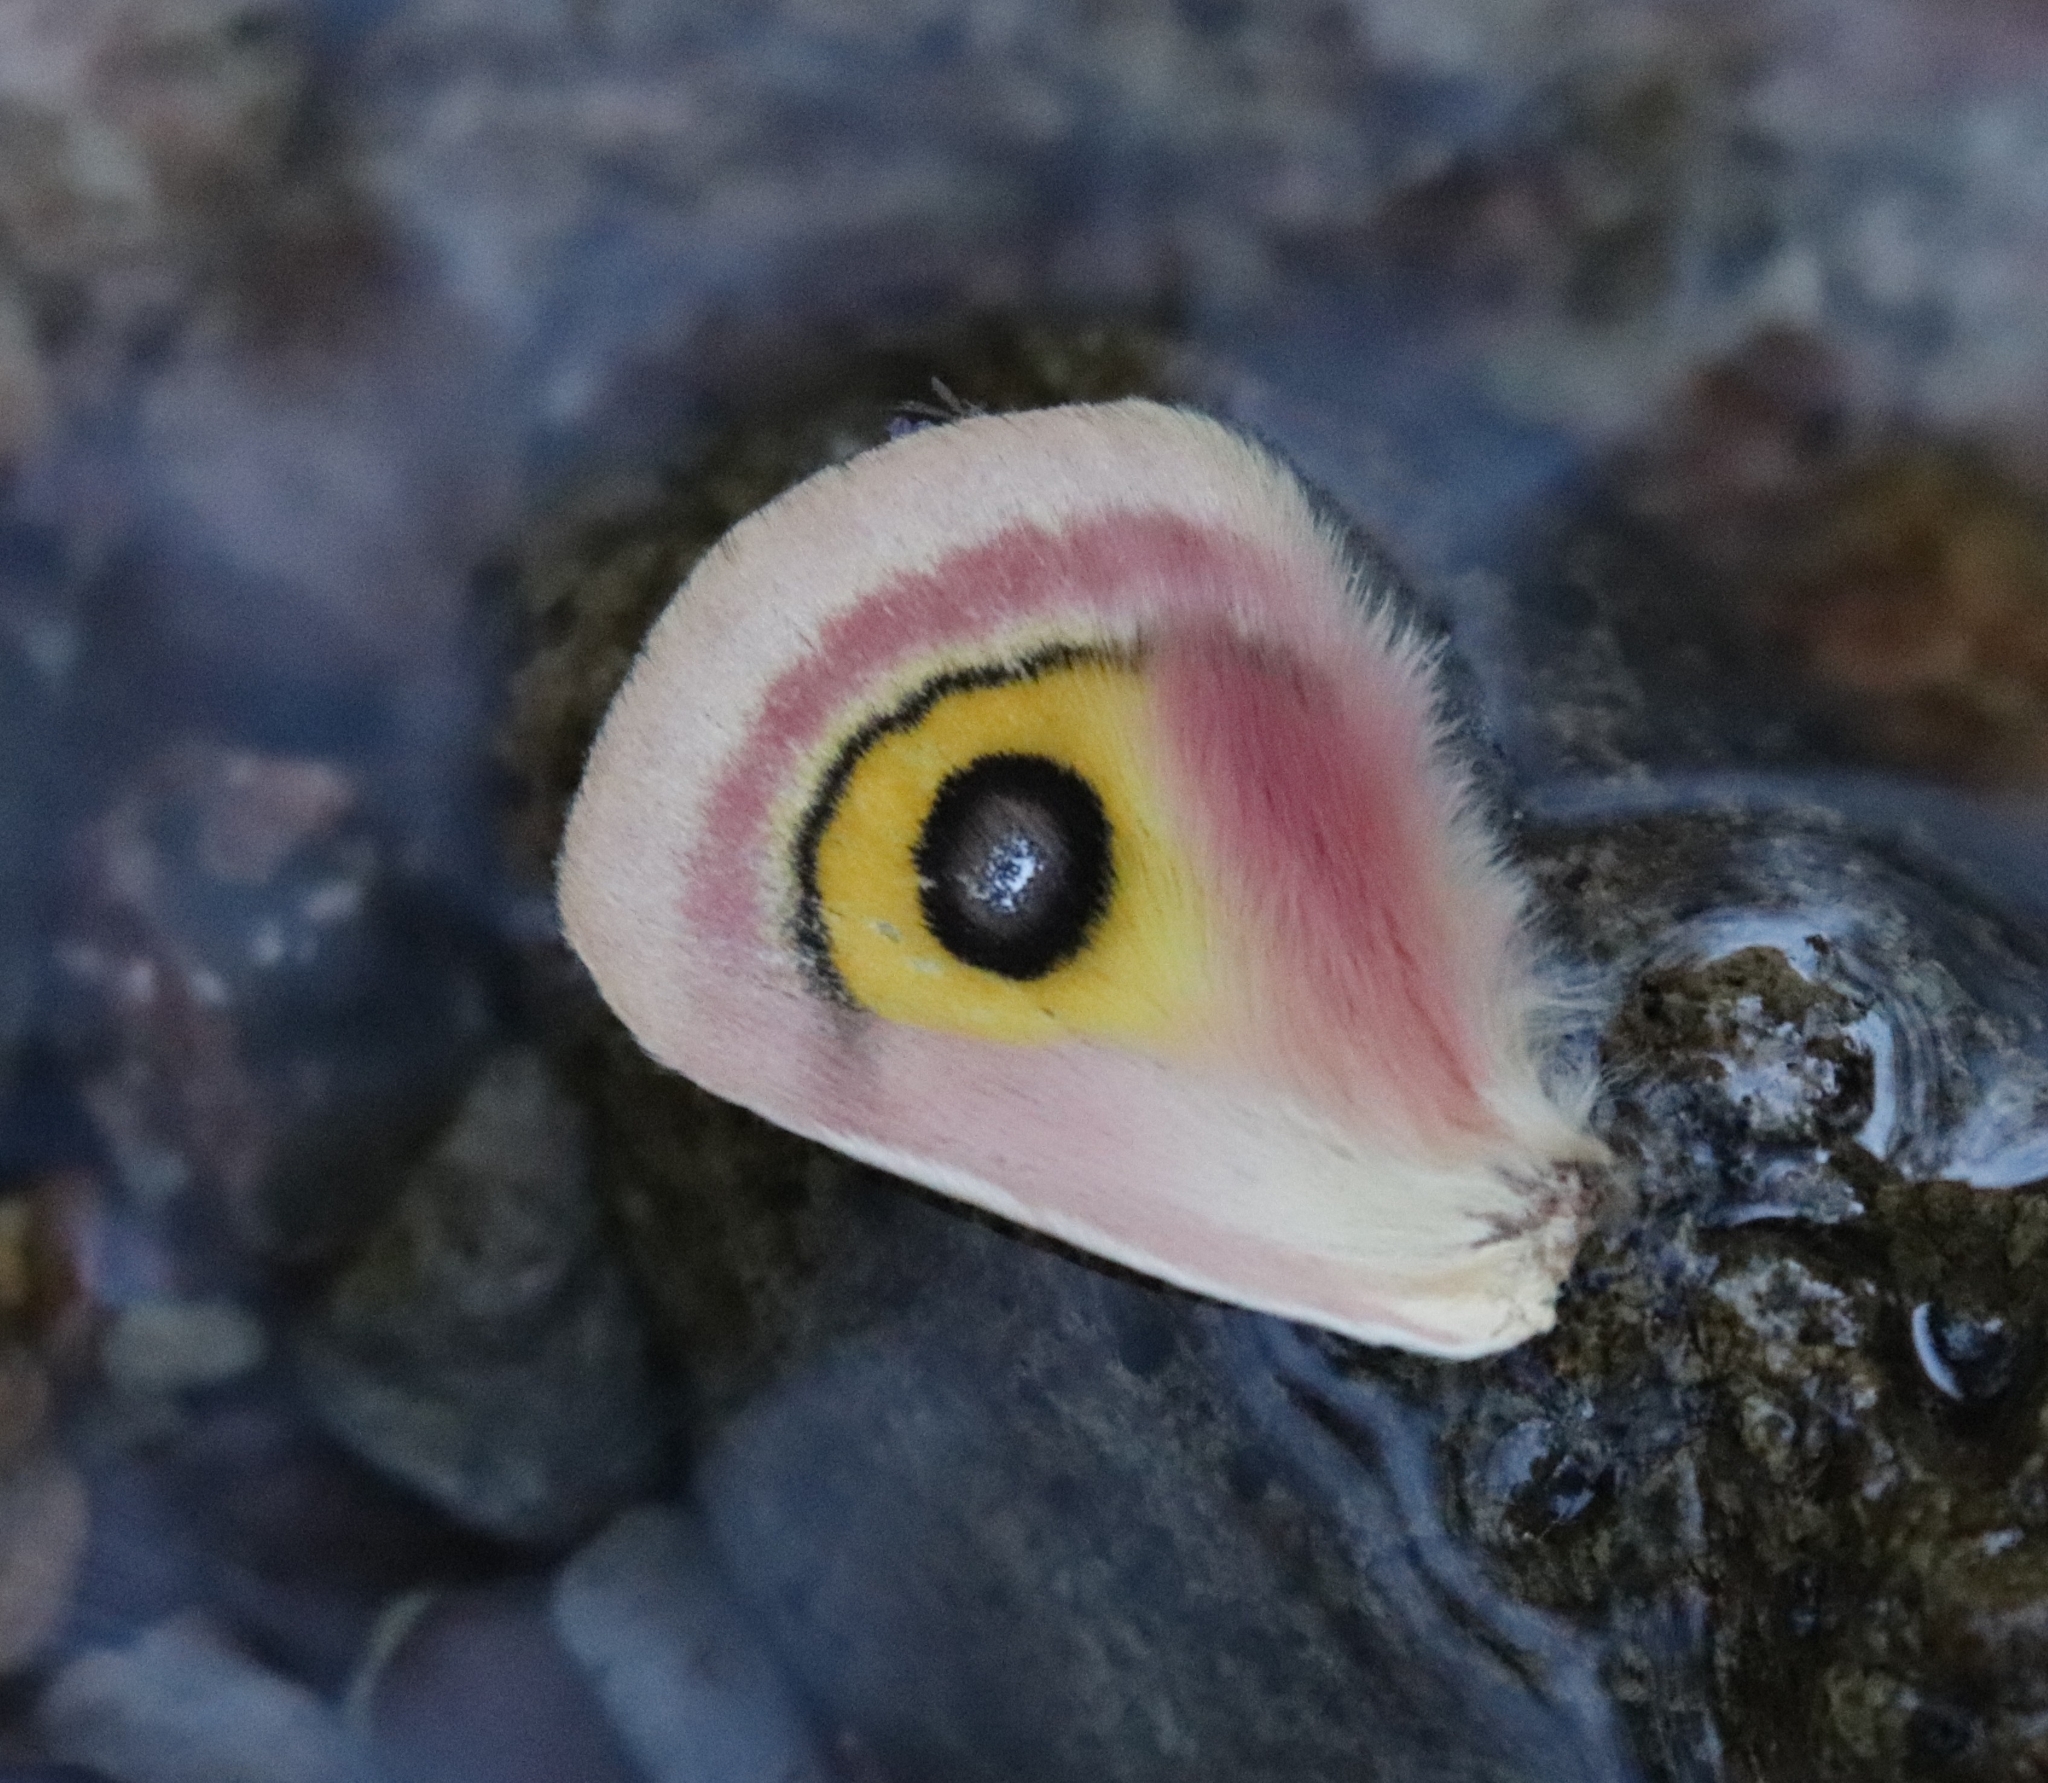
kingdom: Animalia
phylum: Arthropoda
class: Insecta
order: Lepidoptera
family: Saturniidae
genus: Automeris
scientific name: Automeris cecrops
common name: Cecrops eyed silkmoth
